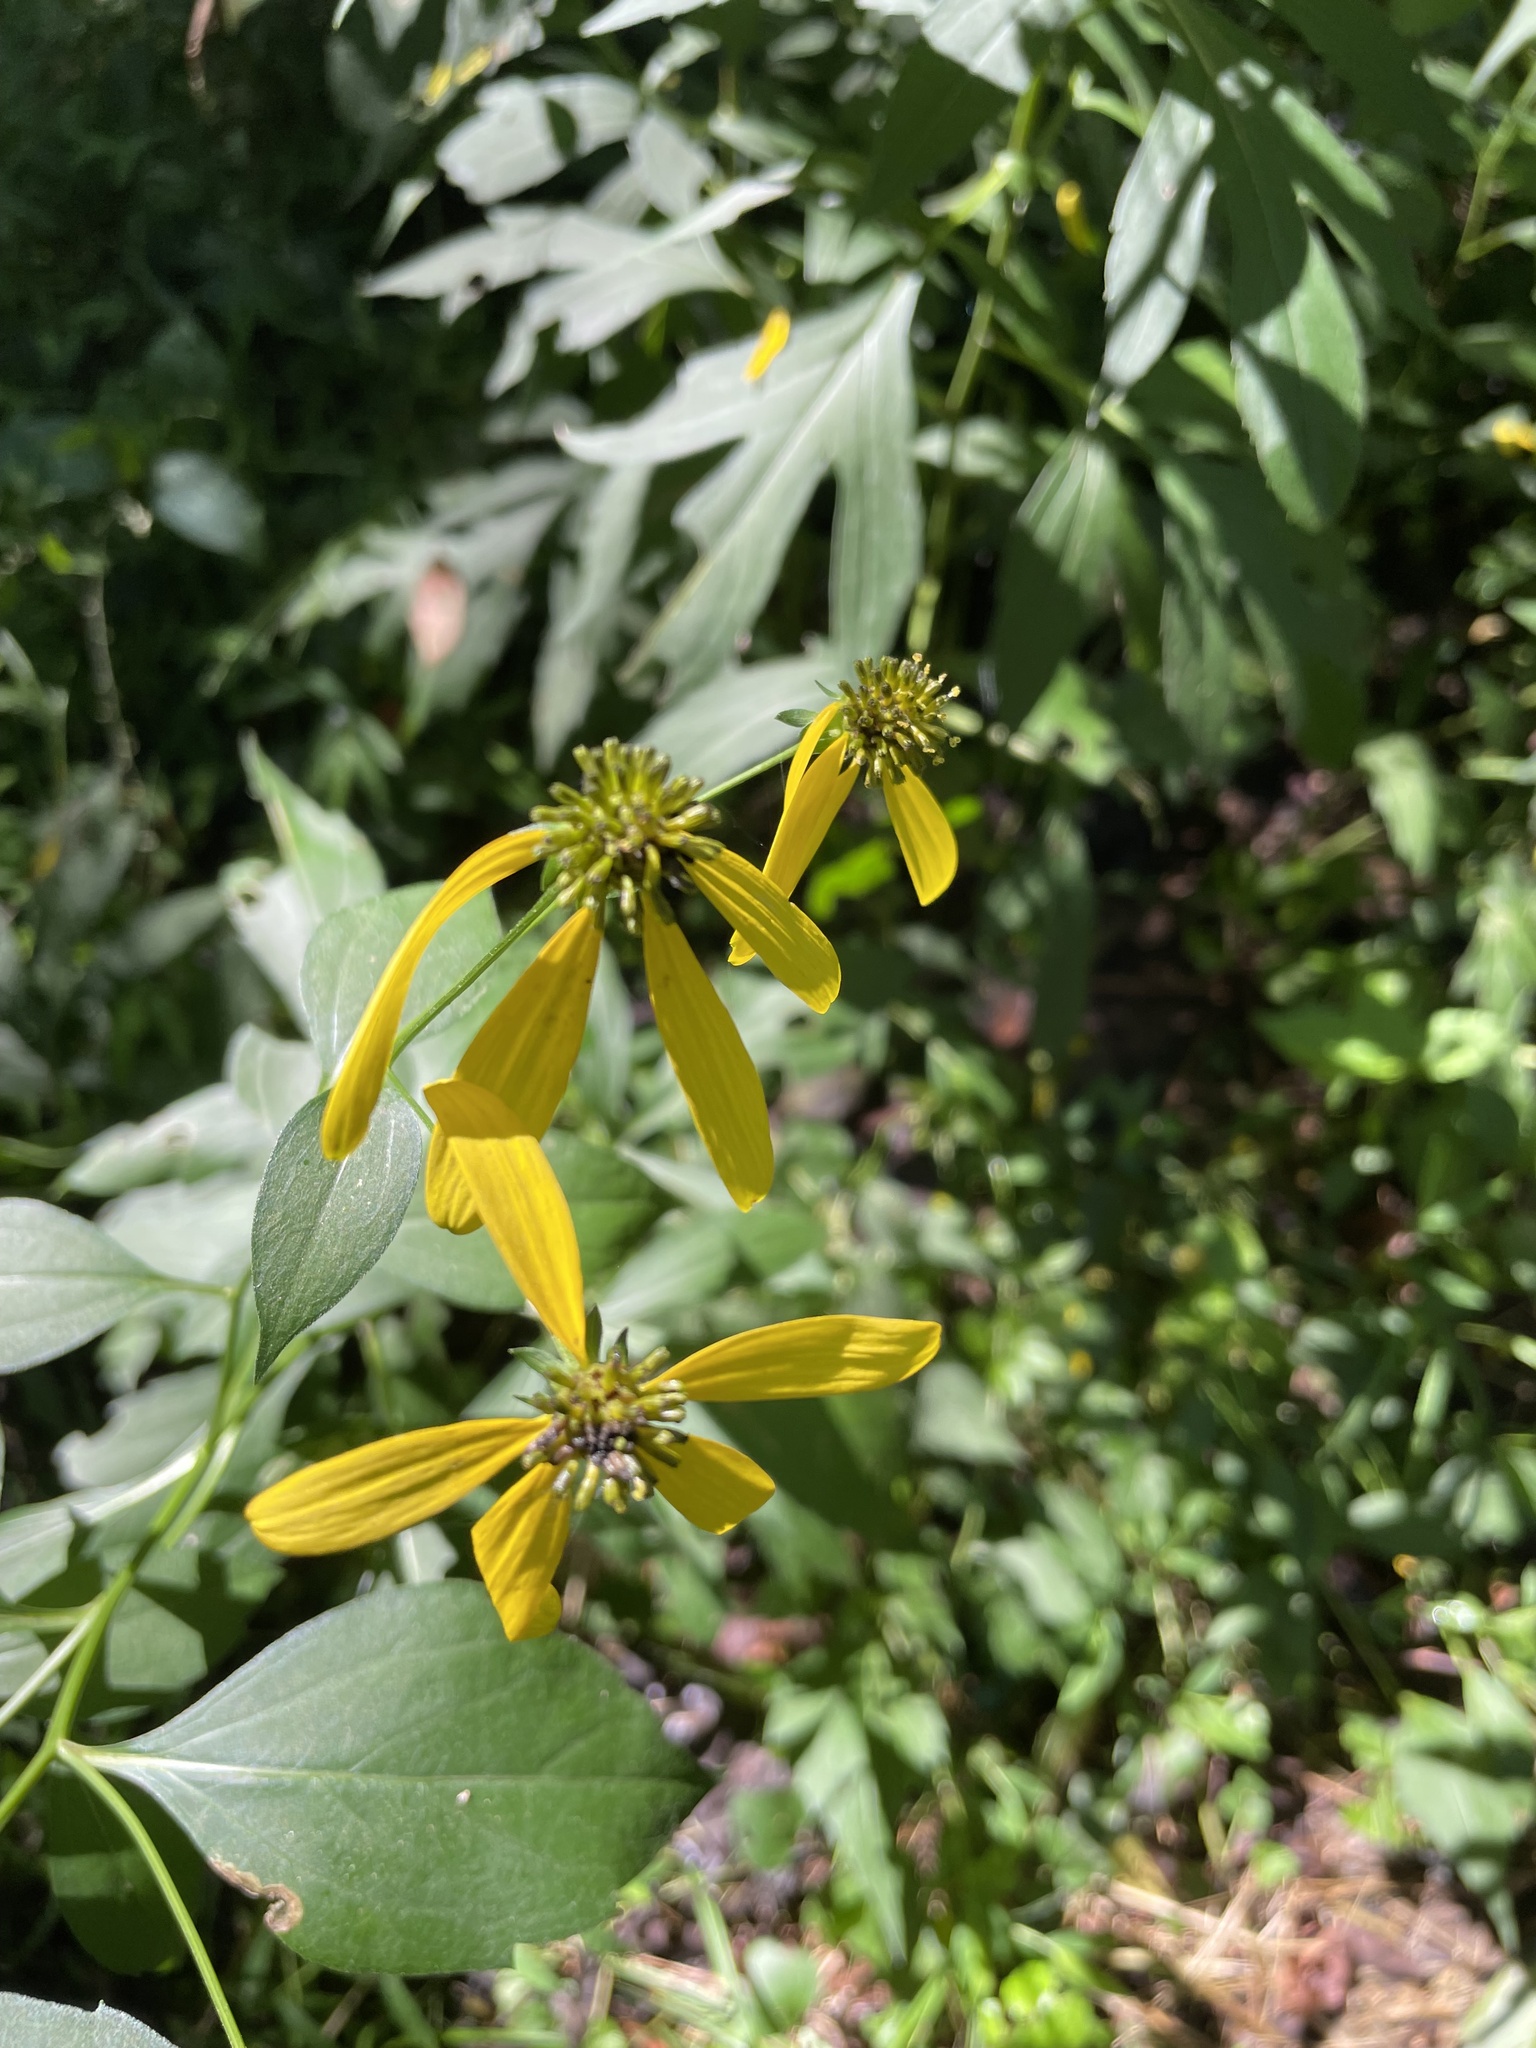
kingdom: Plantae
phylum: Tracheophyta
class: Magnoliopsida
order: Asterales
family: Asteraceae
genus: Rudbeckia
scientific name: Rudbeckia laciniata
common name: Coneflower
